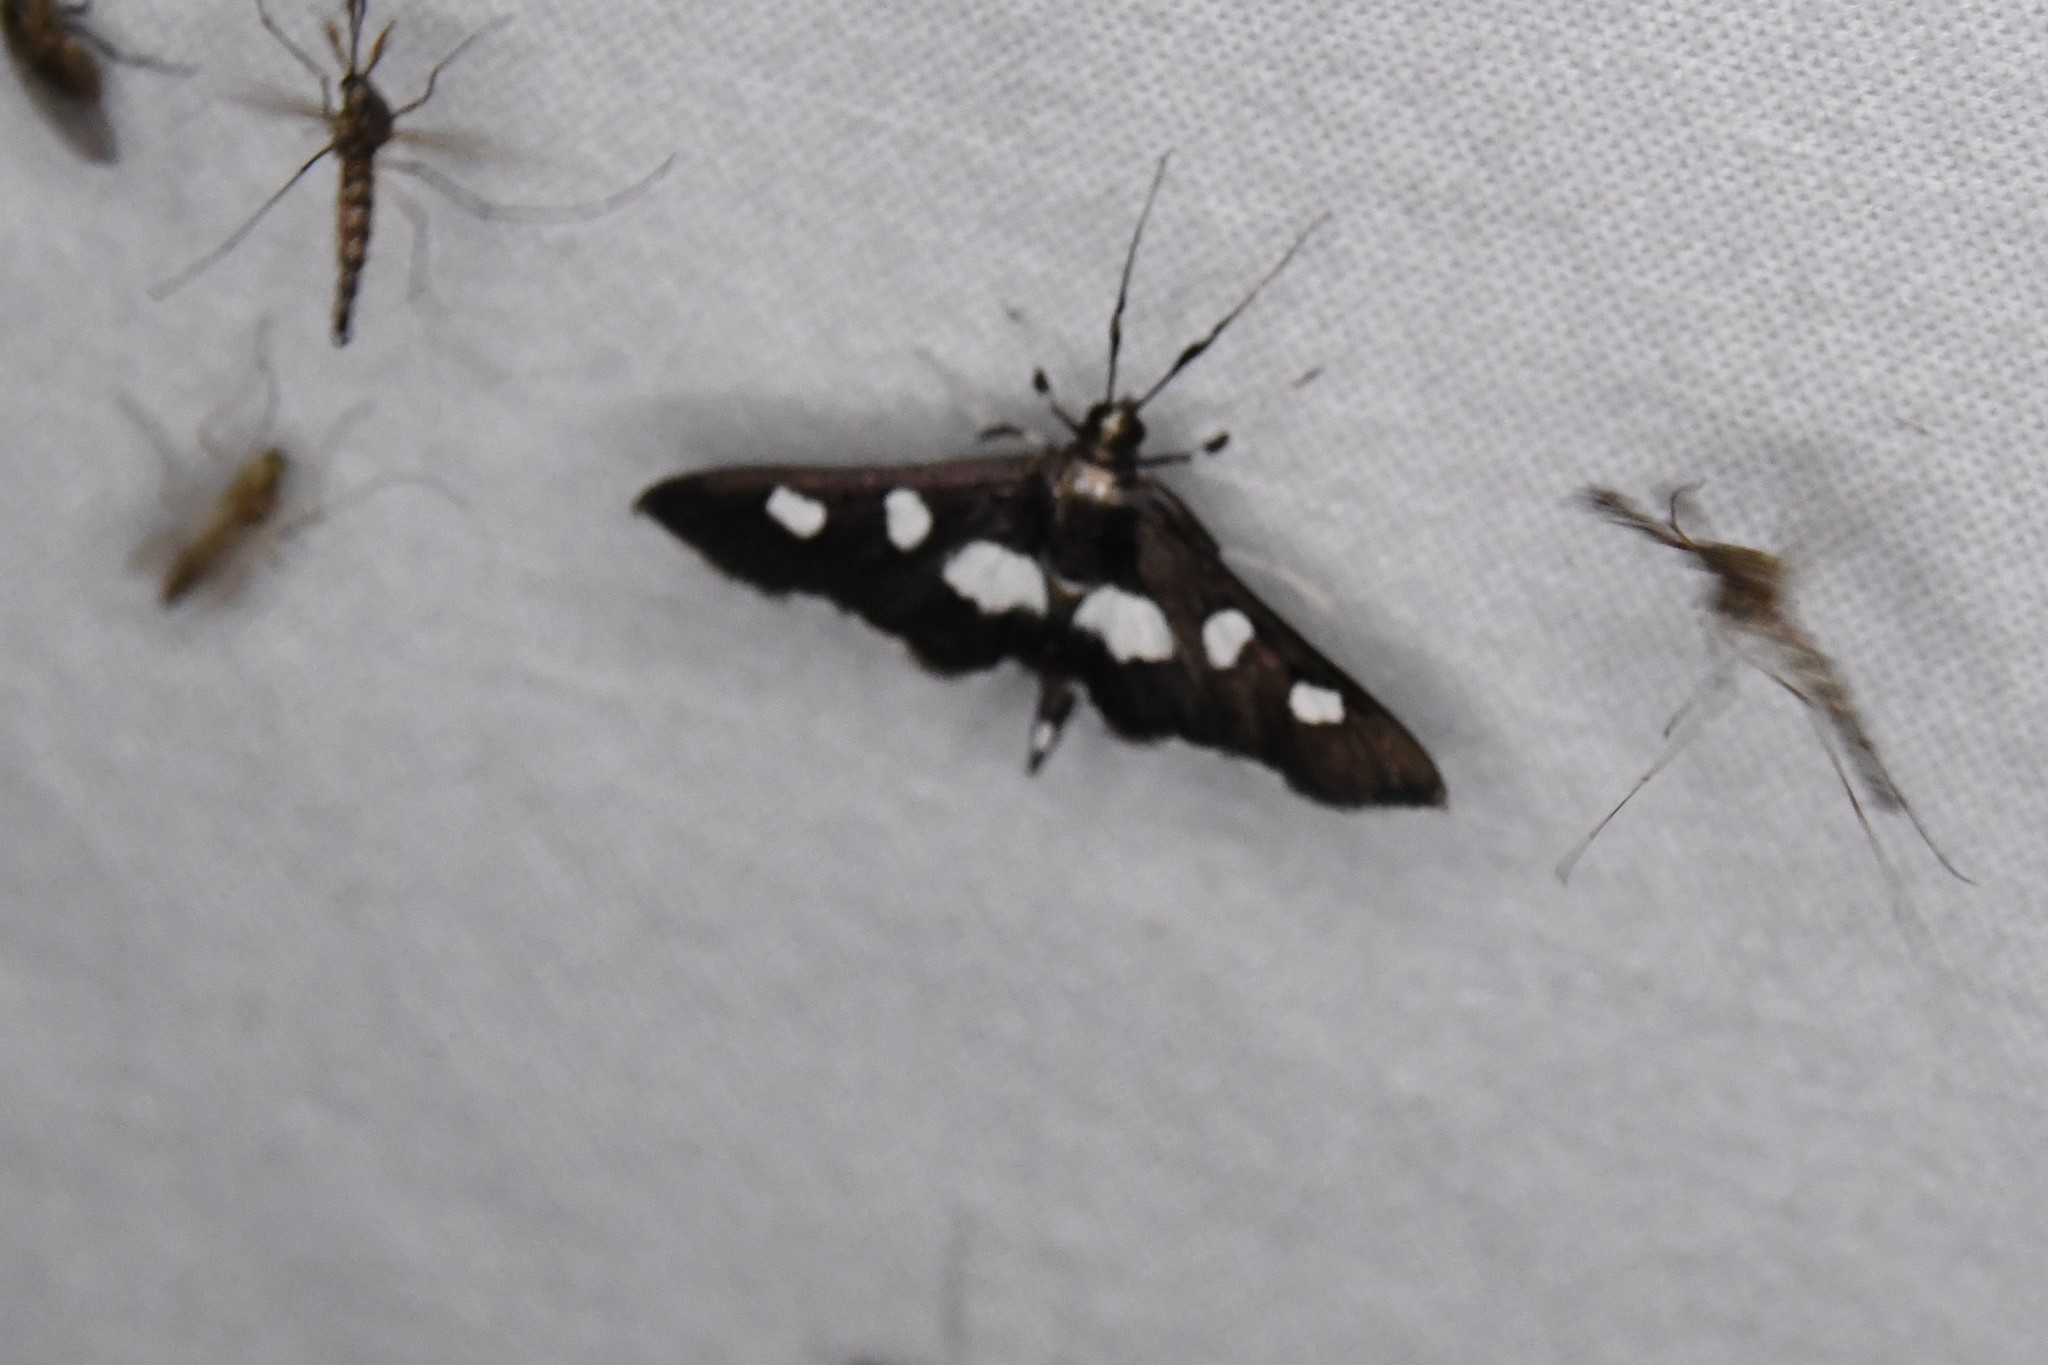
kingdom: Animalia
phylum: Arthropoda
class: Insecta
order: Lepidoptera
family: Crambidae
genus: Desmia
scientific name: Desmia
